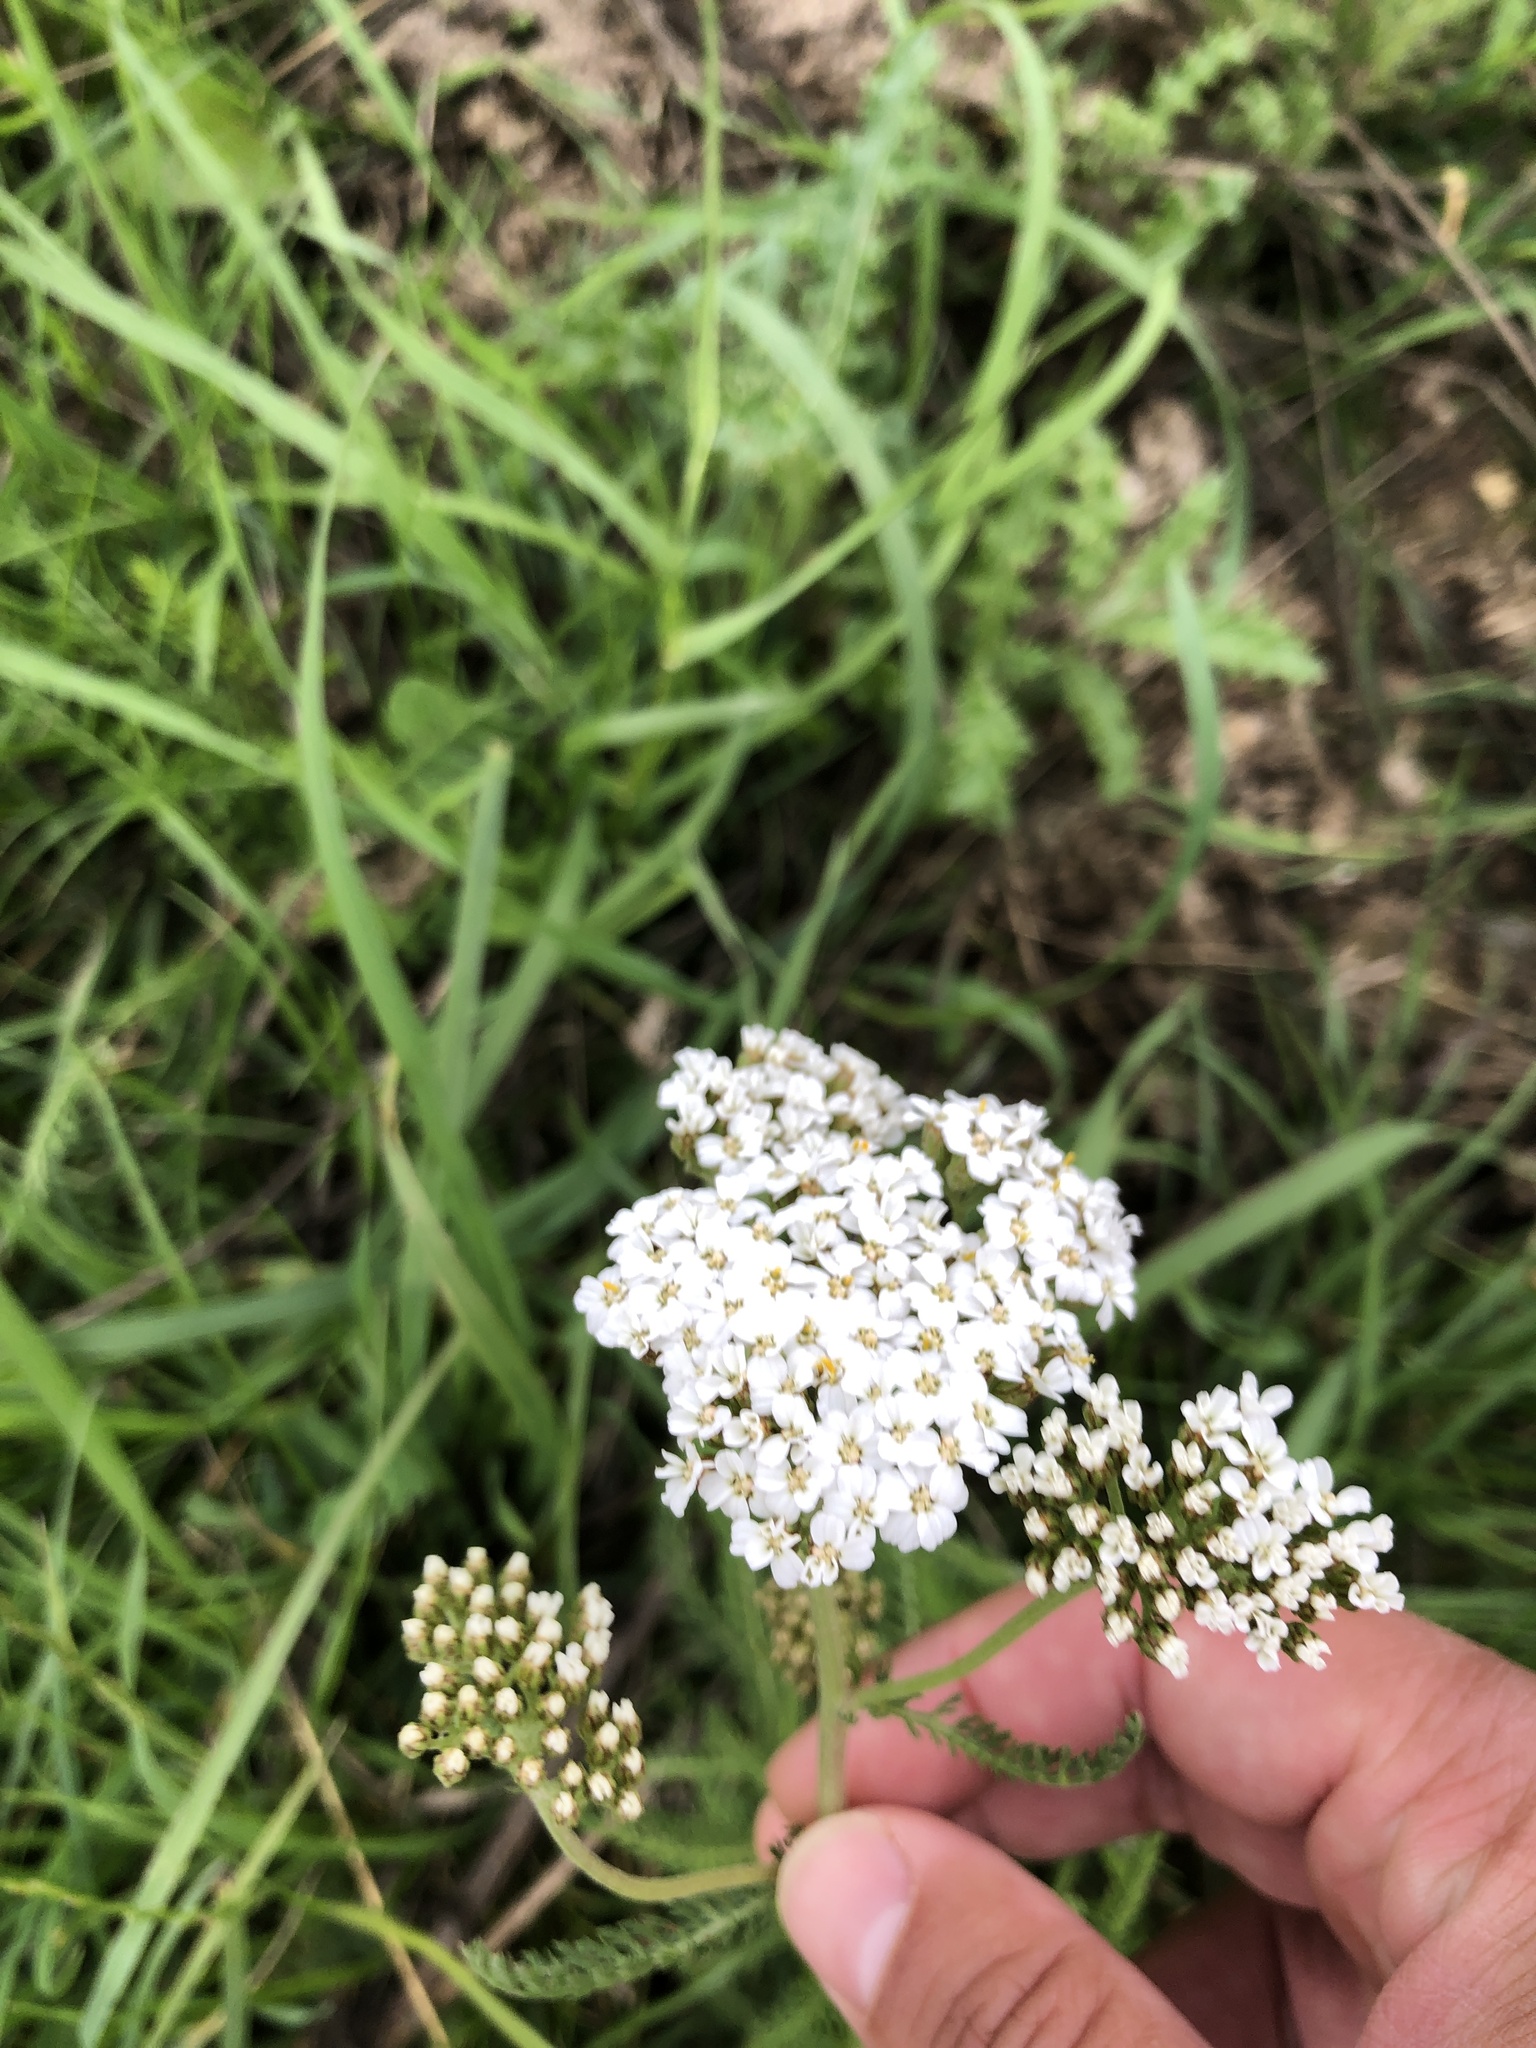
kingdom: Plantae
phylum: Tracheophyta
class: Magnoliopsida
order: Asterales
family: Asteraceae
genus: Achillea
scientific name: Achillea millefolium
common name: Yarrow
